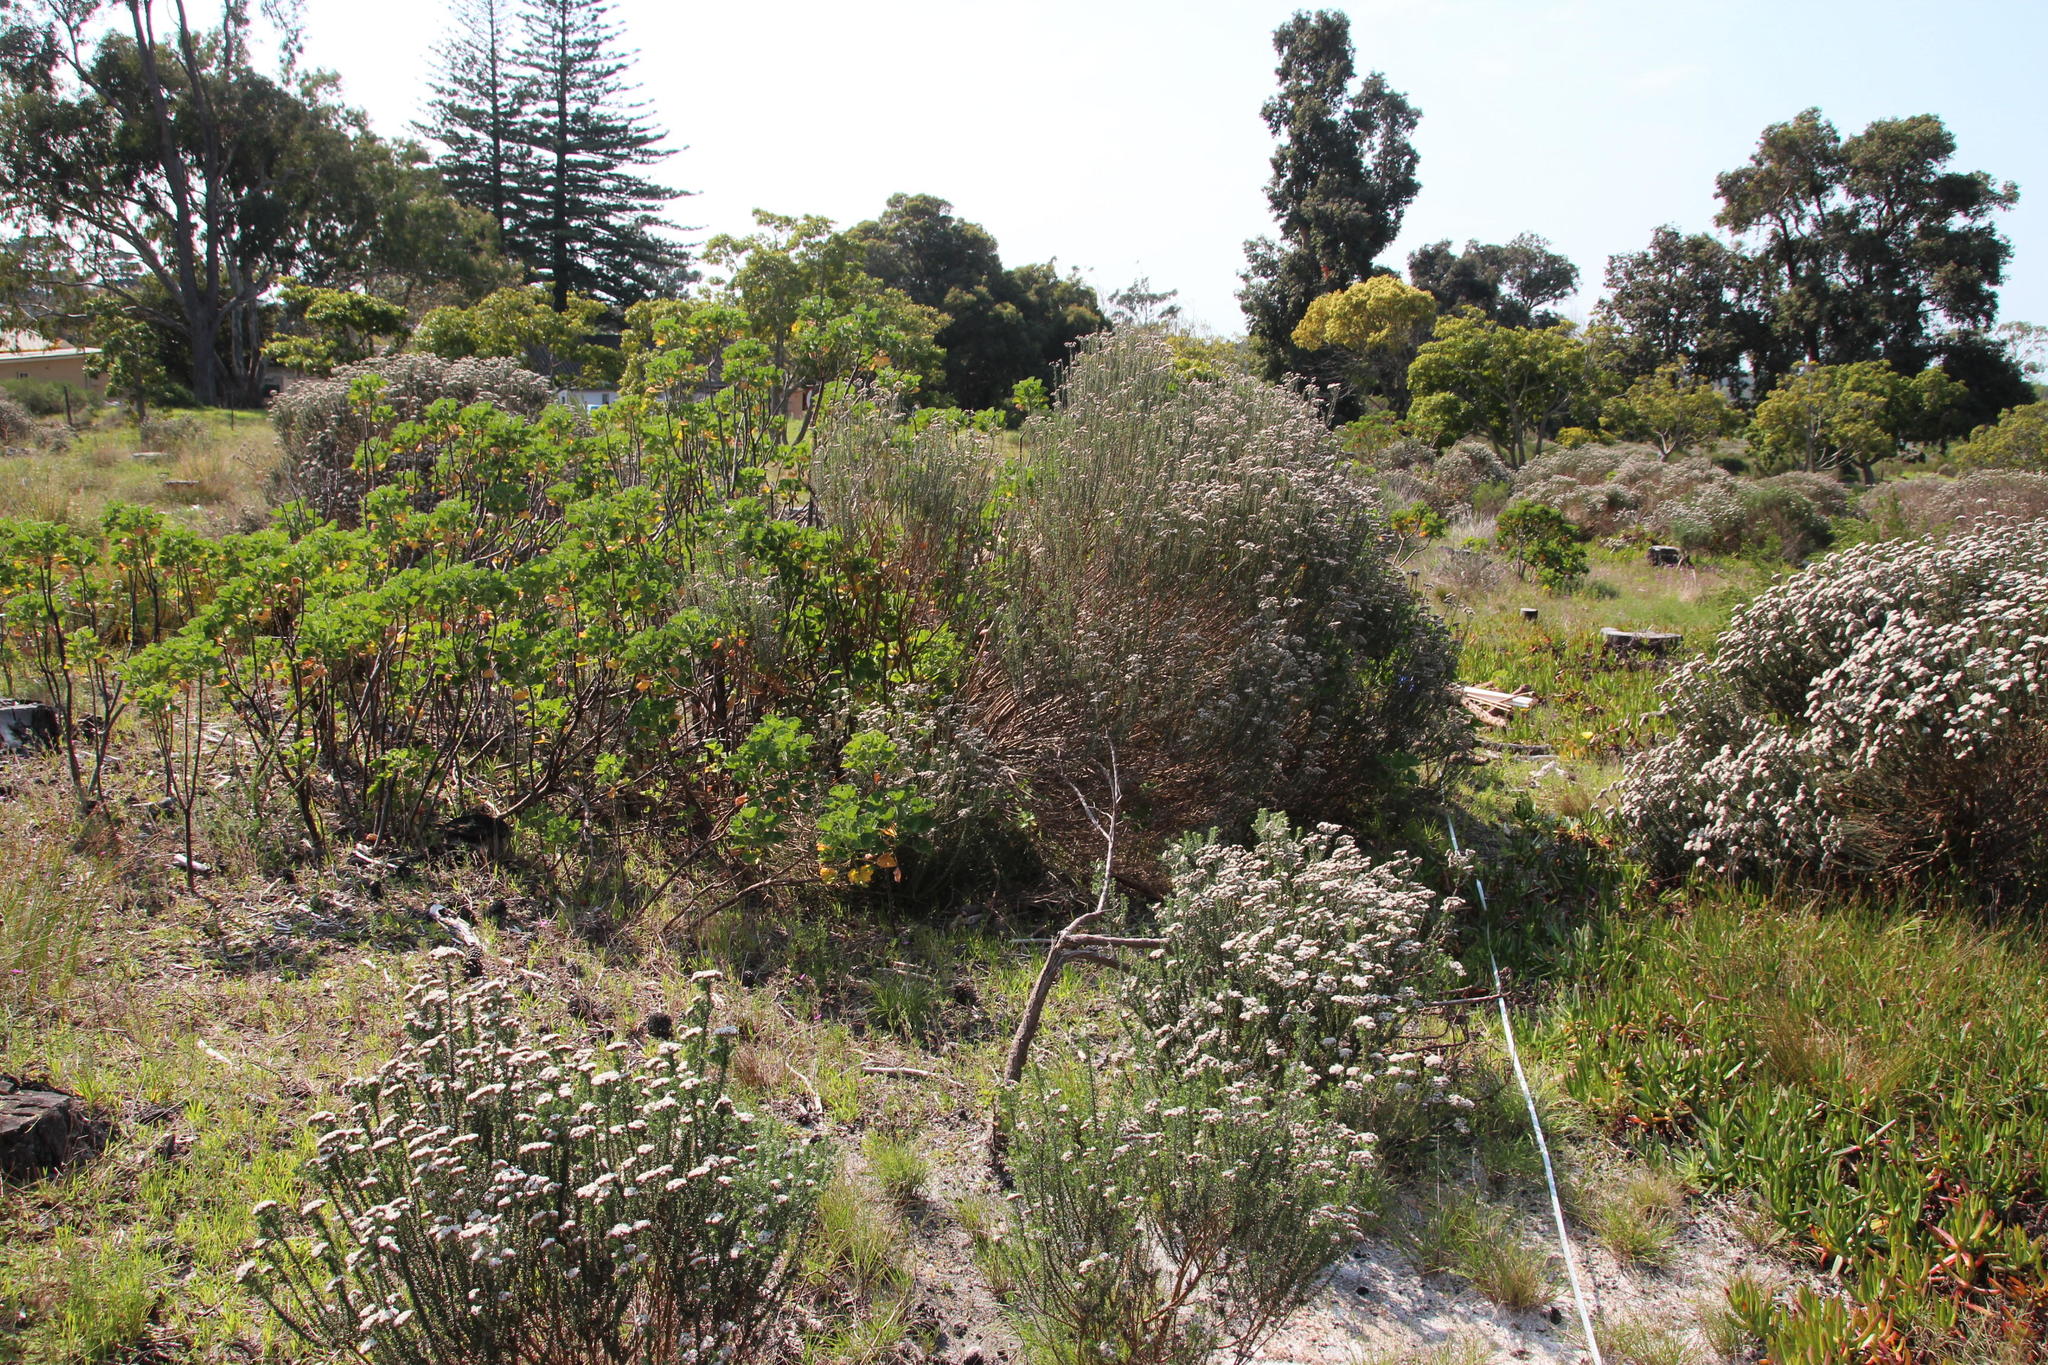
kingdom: Plantae
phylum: Tracheophyta
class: Magnoliopsida
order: Asterales
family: Asteraceae
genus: Metalasia
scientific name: Metalasia densa
